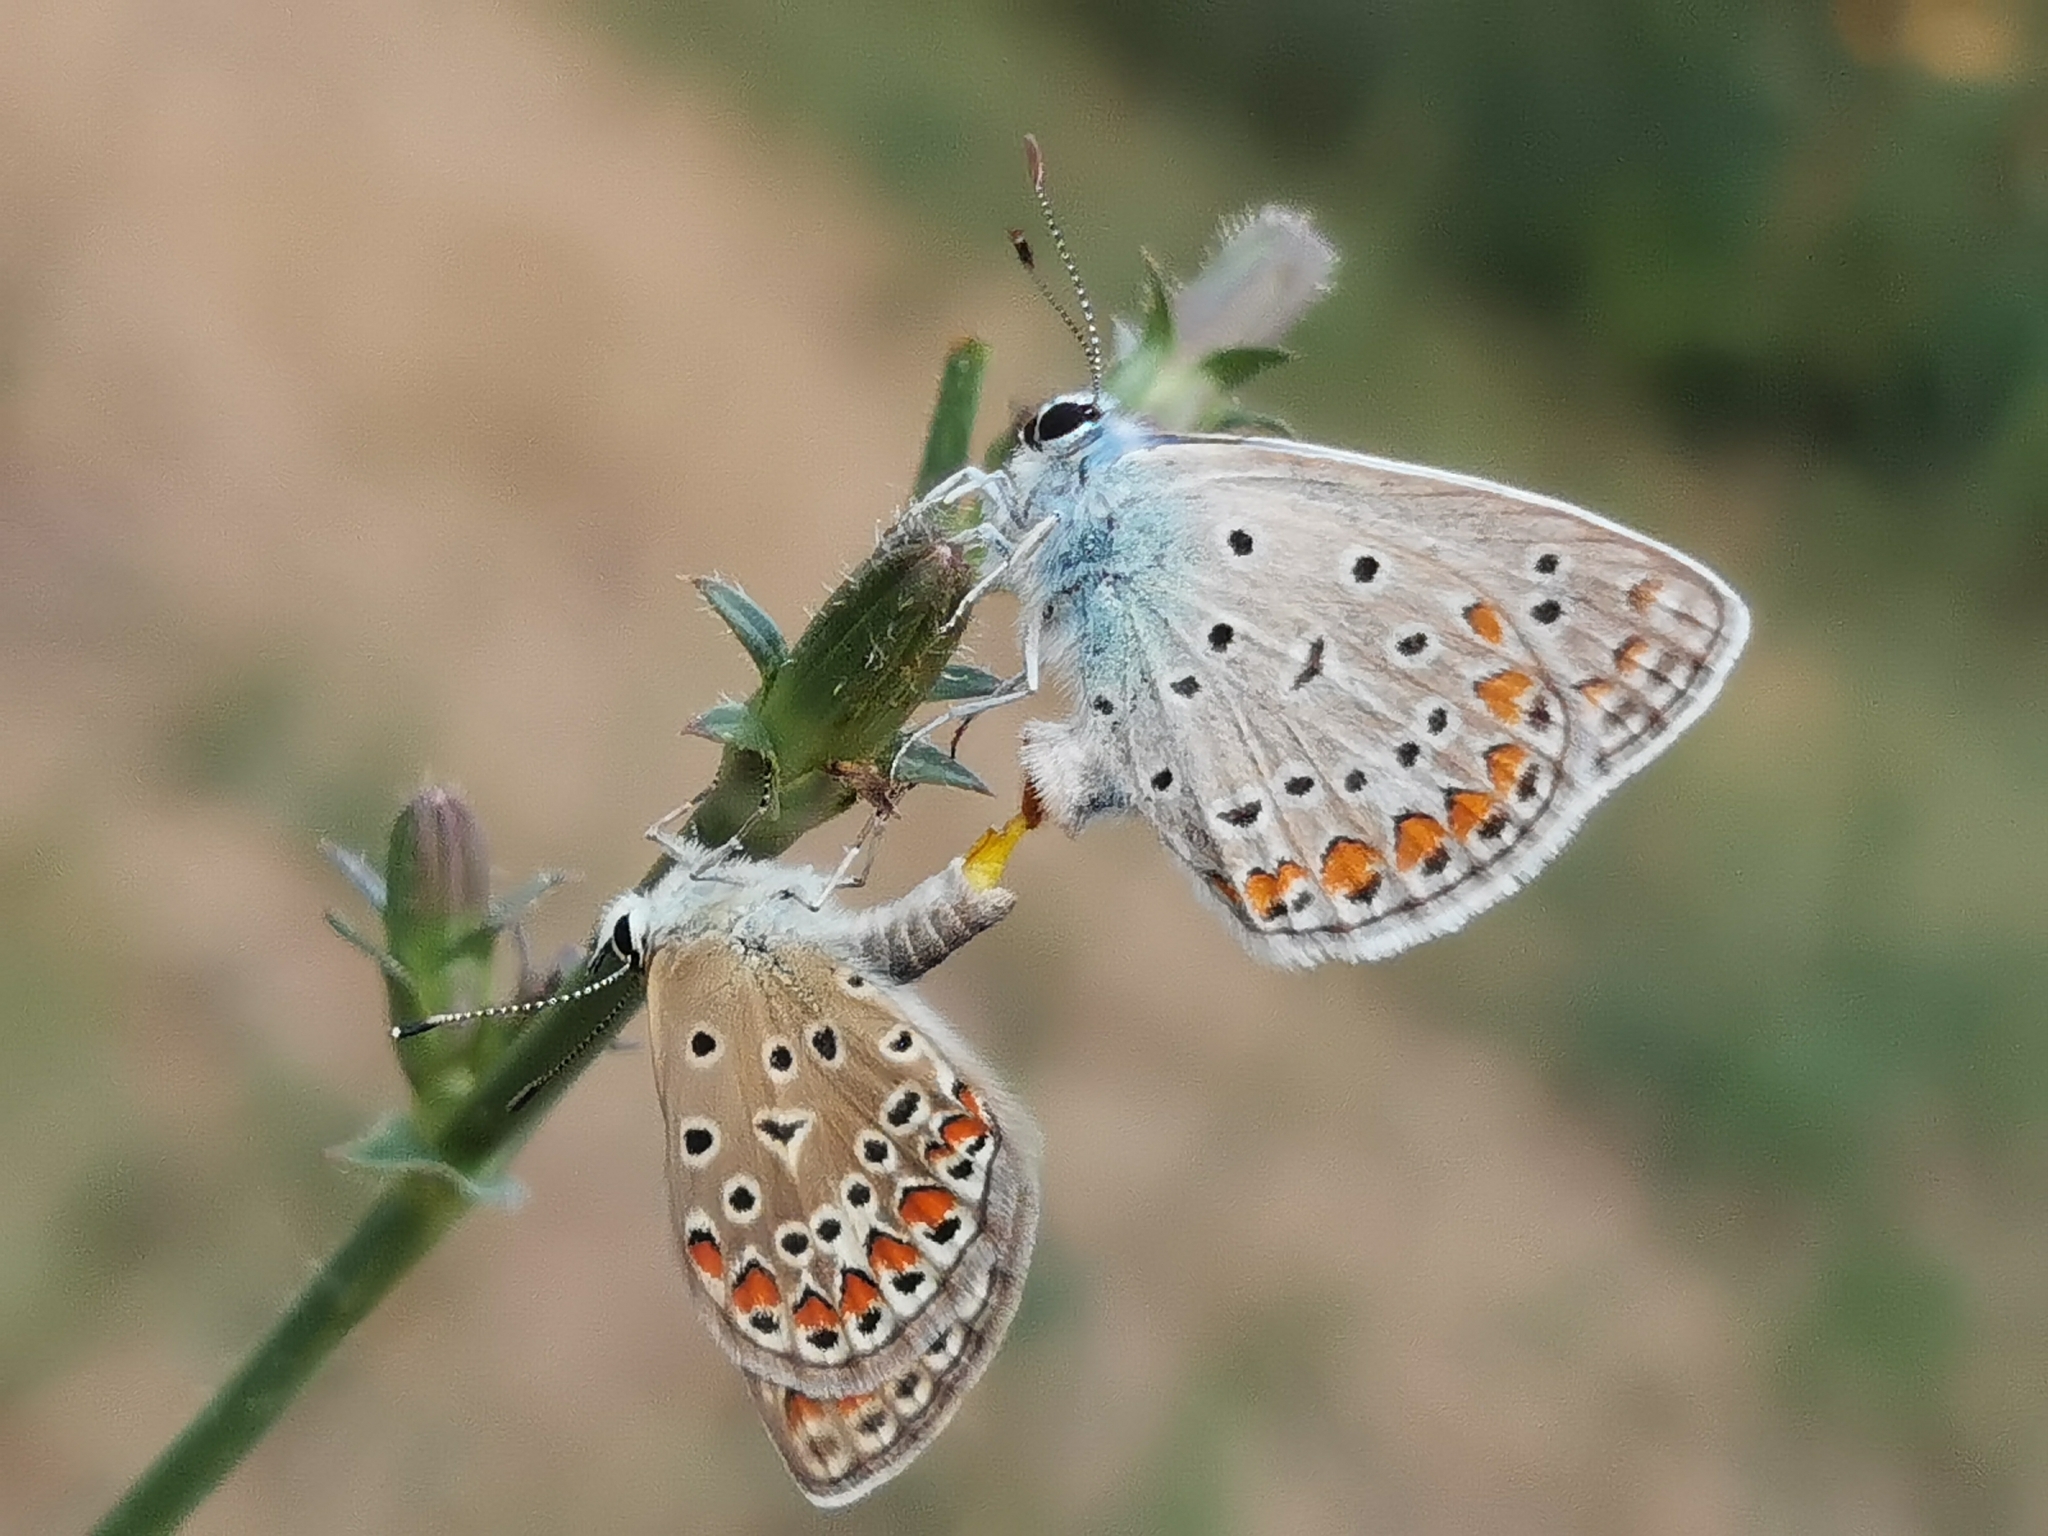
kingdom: Animalia
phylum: Arthropoda
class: Insecta
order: Lepidoptera
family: Lycaenidae
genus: Polyommatus
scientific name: Polyommatus icarus
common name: Common blue
